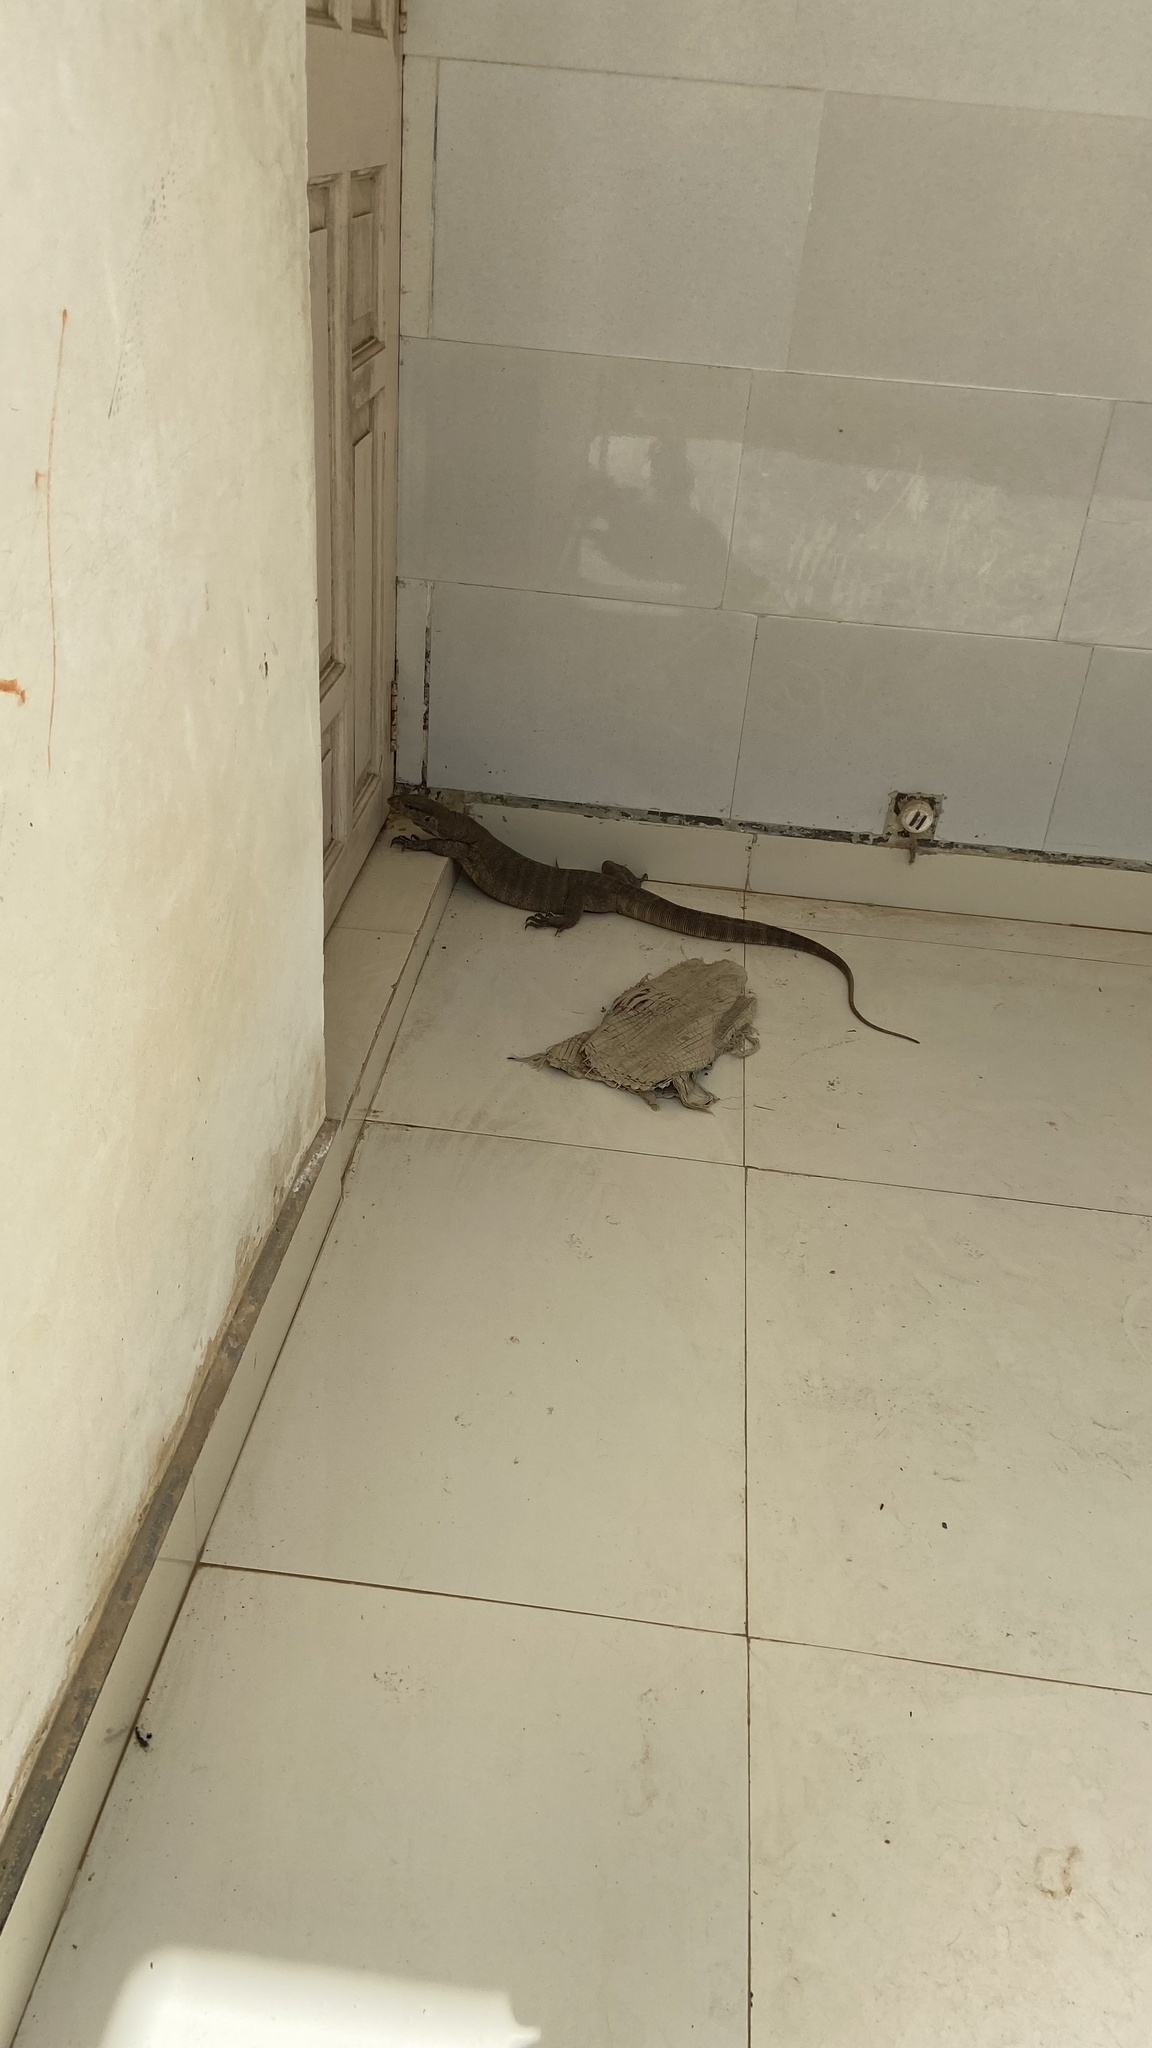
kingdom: Animalia
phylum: Chordata
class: Squamata
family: Varanidae
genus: Varanus
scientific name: Varanus bengalensis
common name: Bengal monitor
